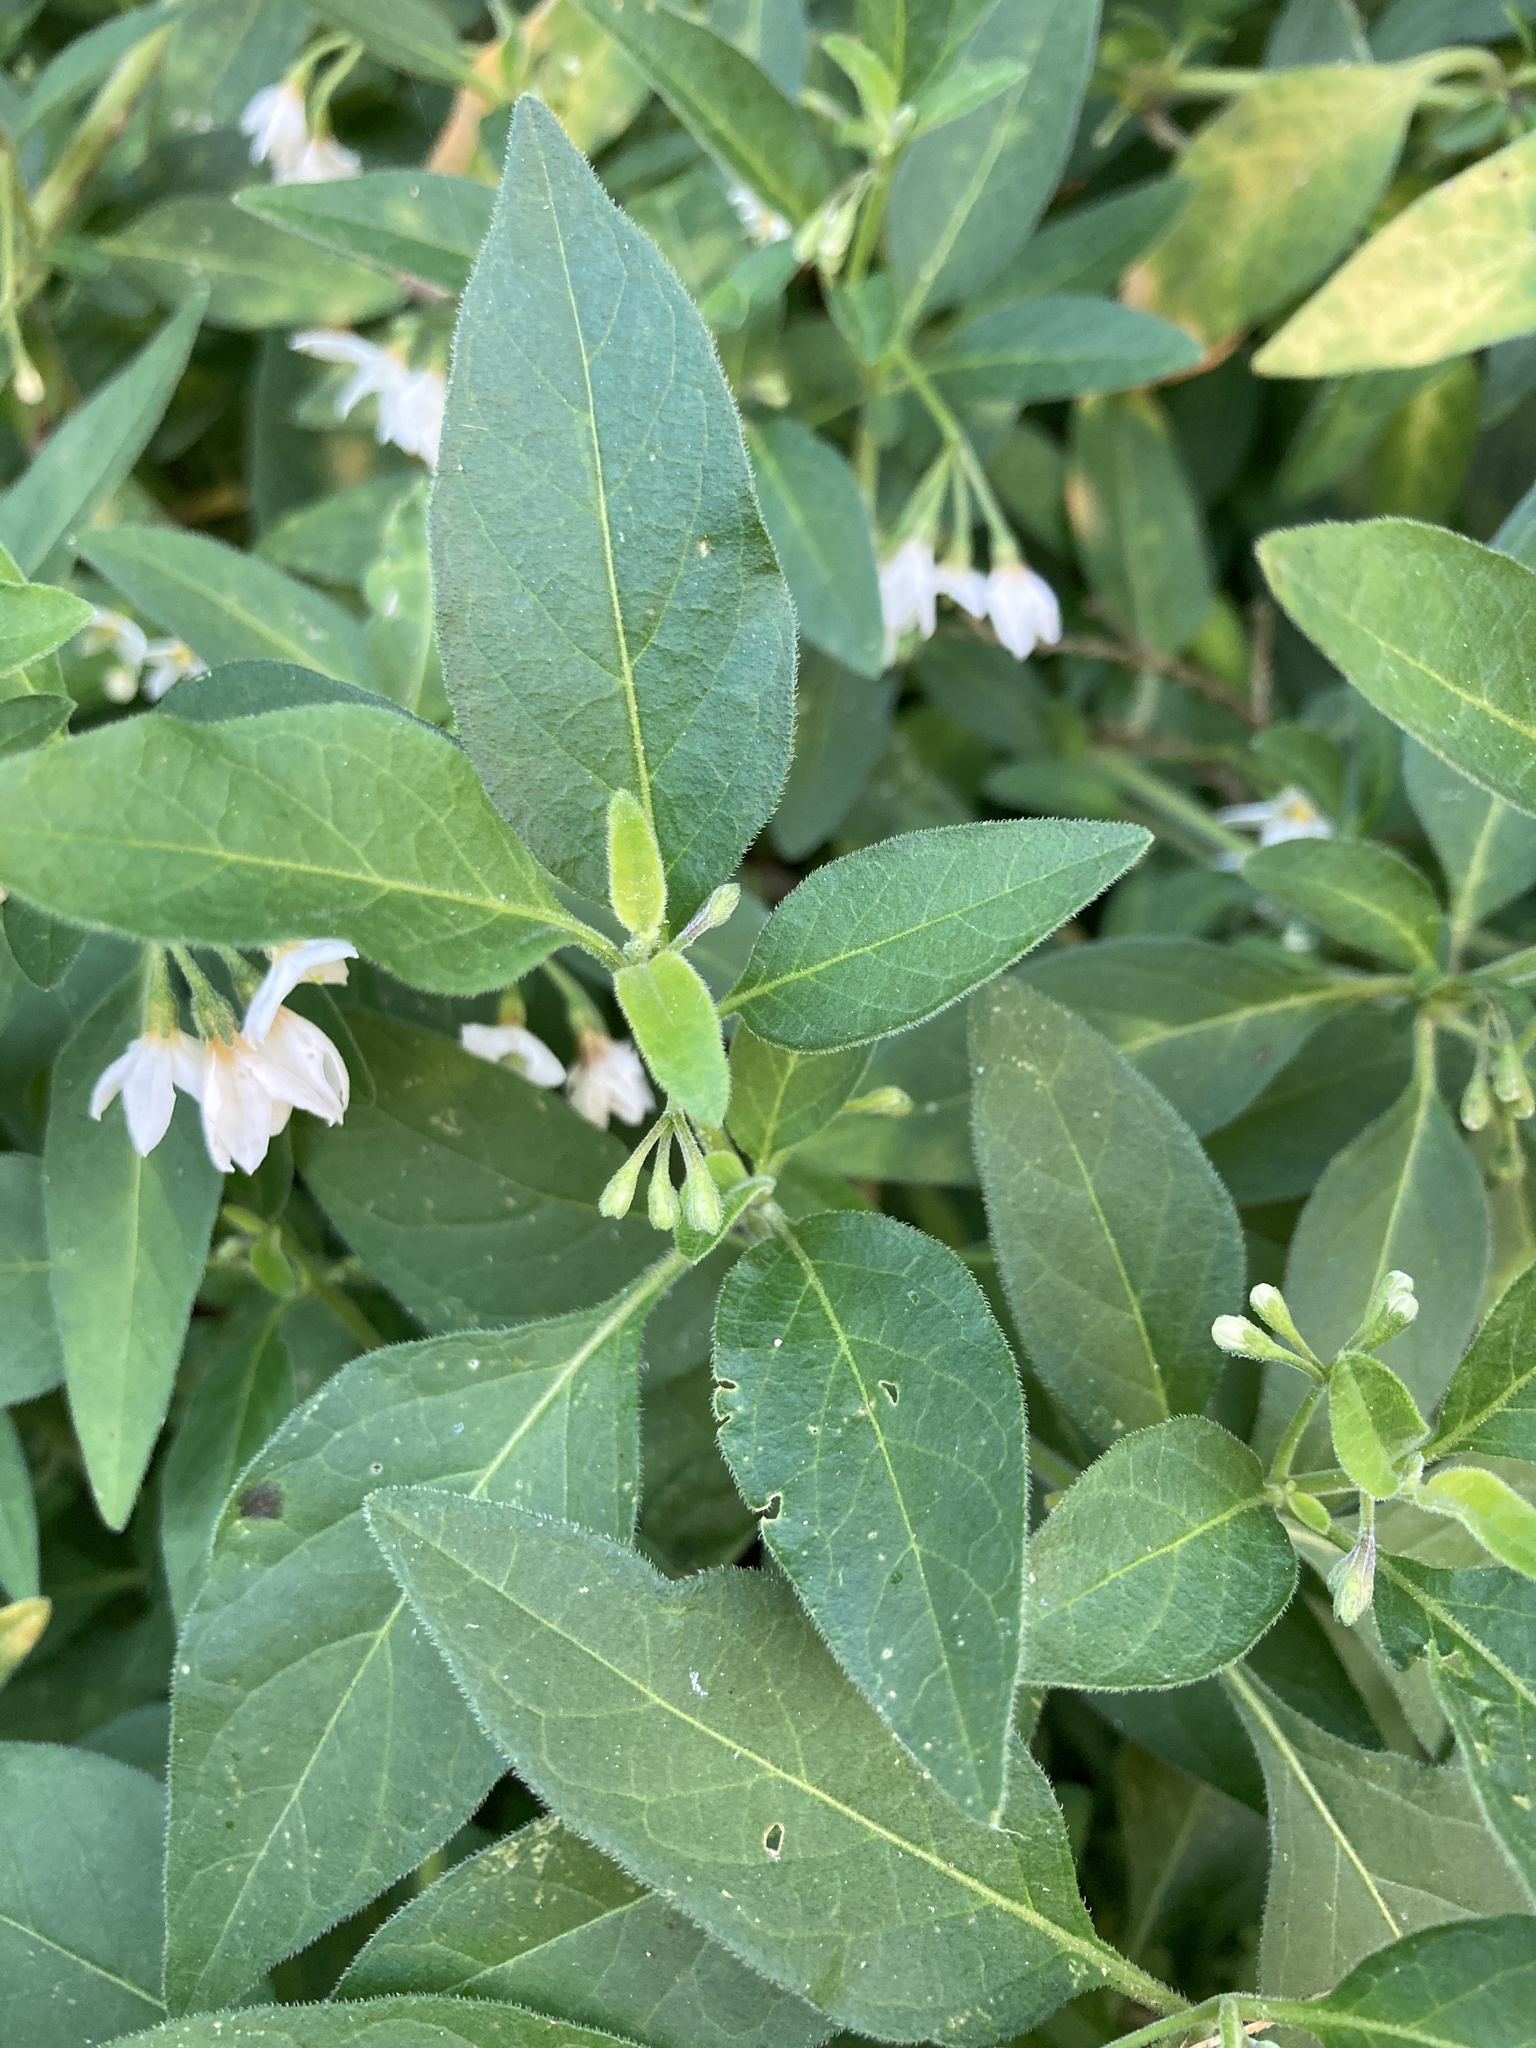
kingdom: Plantae
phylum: Tracheophyta
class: Magnoliopsida
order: Solanales
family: Solanaceae
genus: Solanum
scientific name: Solanum chenopodioides
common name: Tall nightshade
